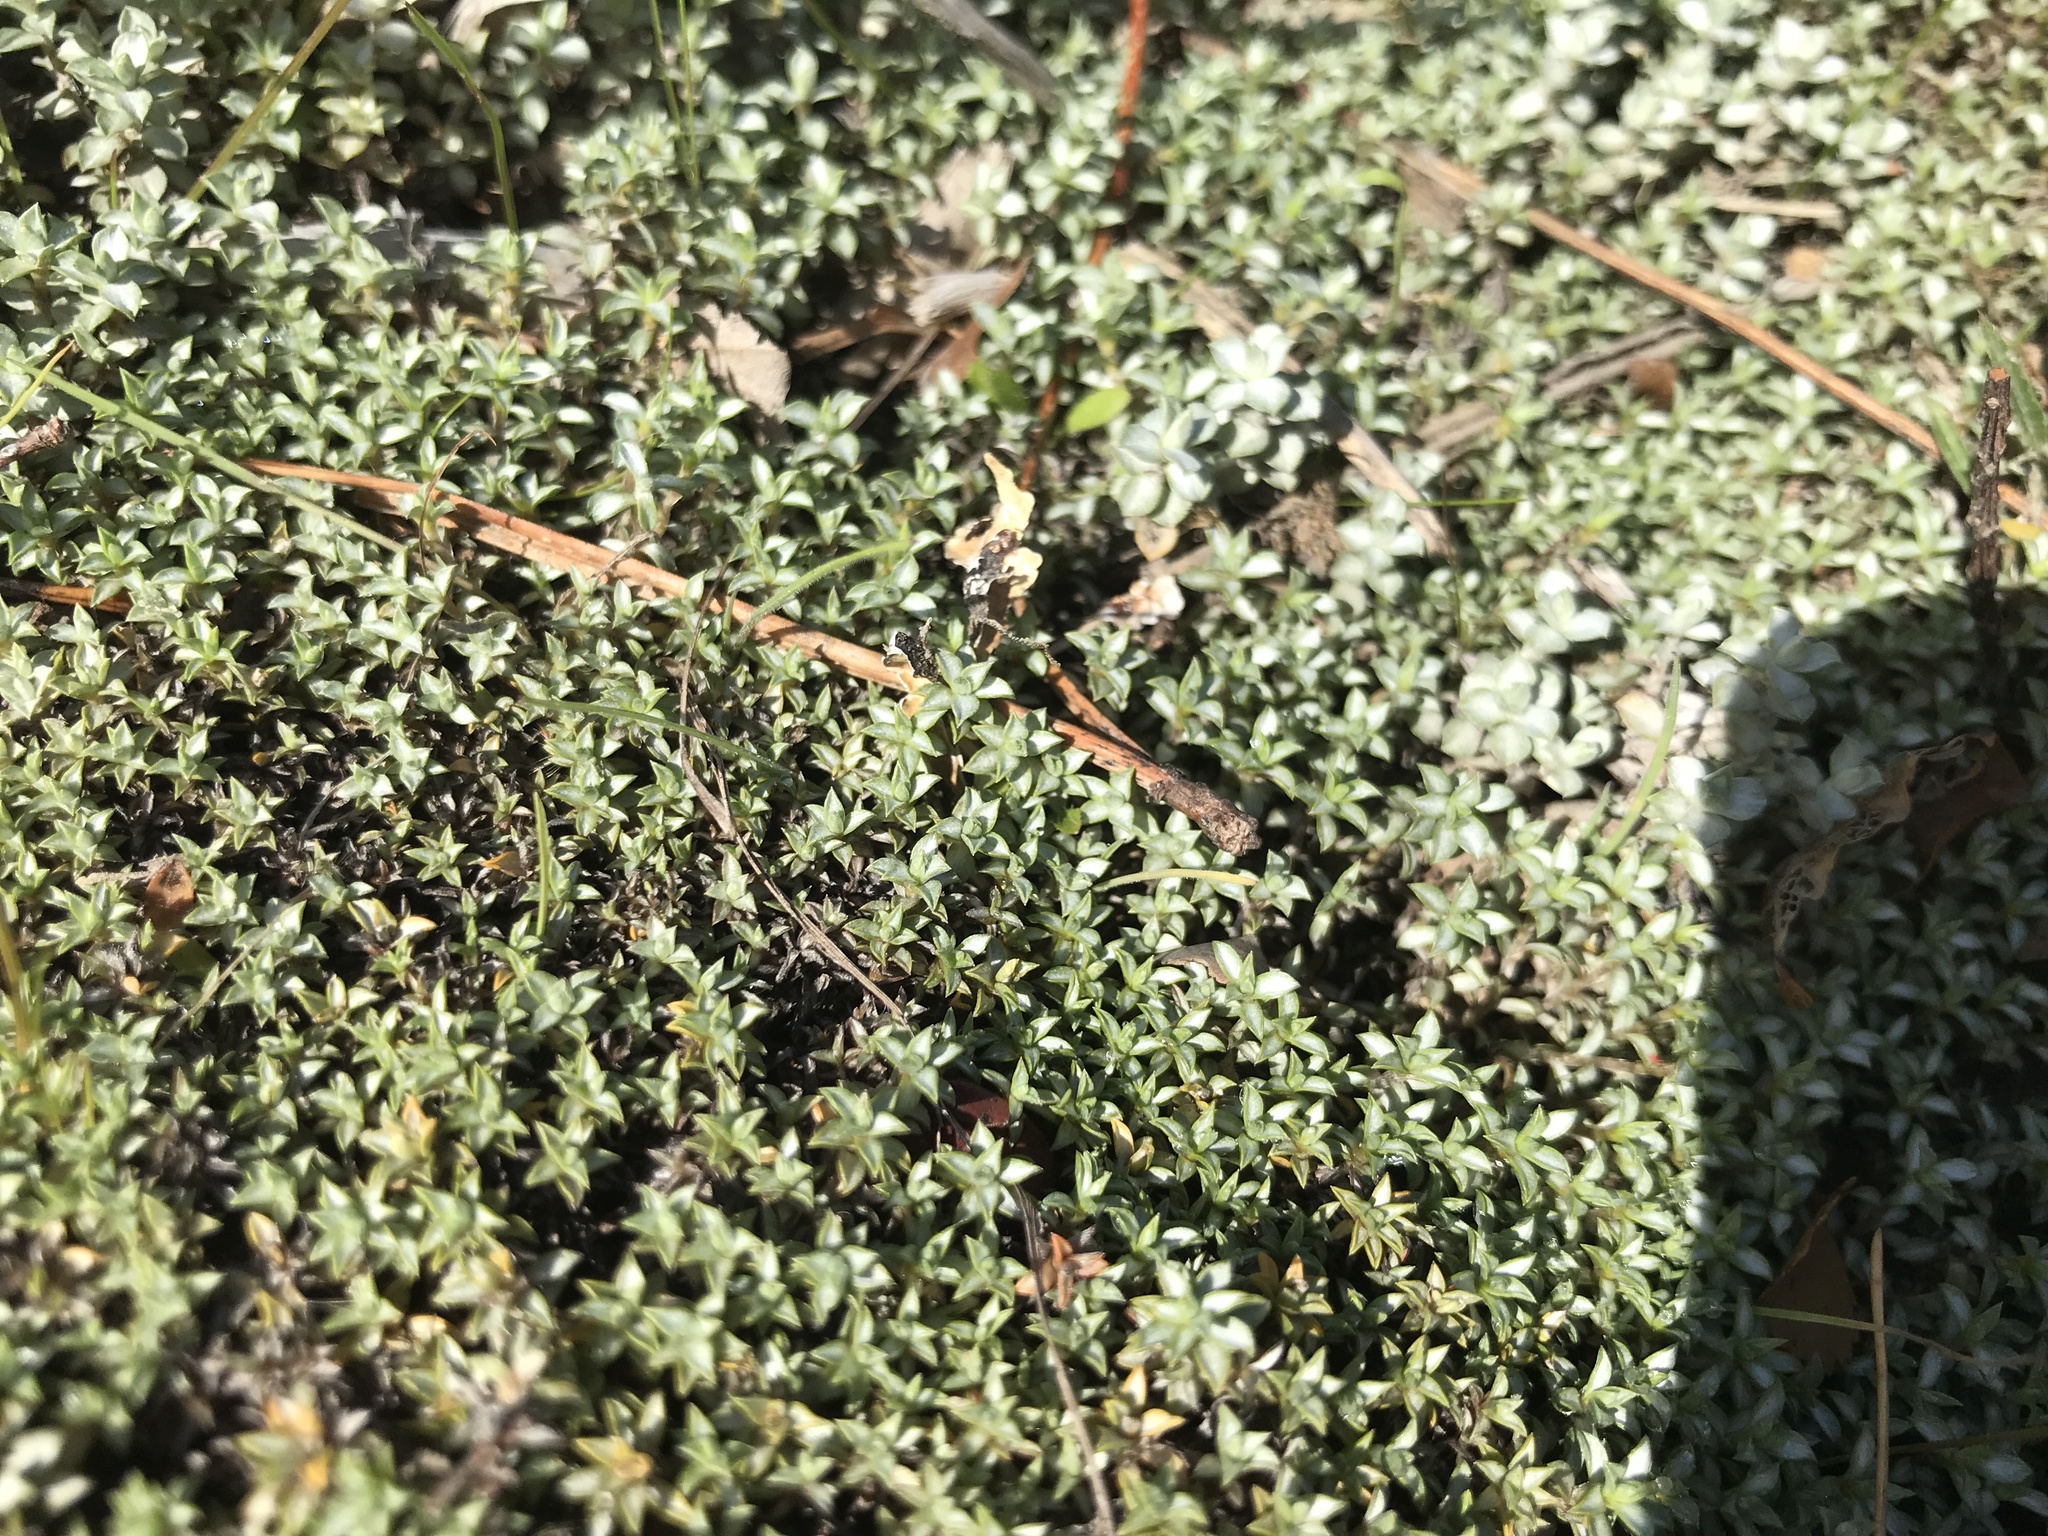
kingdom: Plantae
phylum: Tracheophyta
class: Magnoliopsida
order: Asterales
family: Asteraceae
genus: Raoulia
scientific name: Raoulia tenuicaulis
